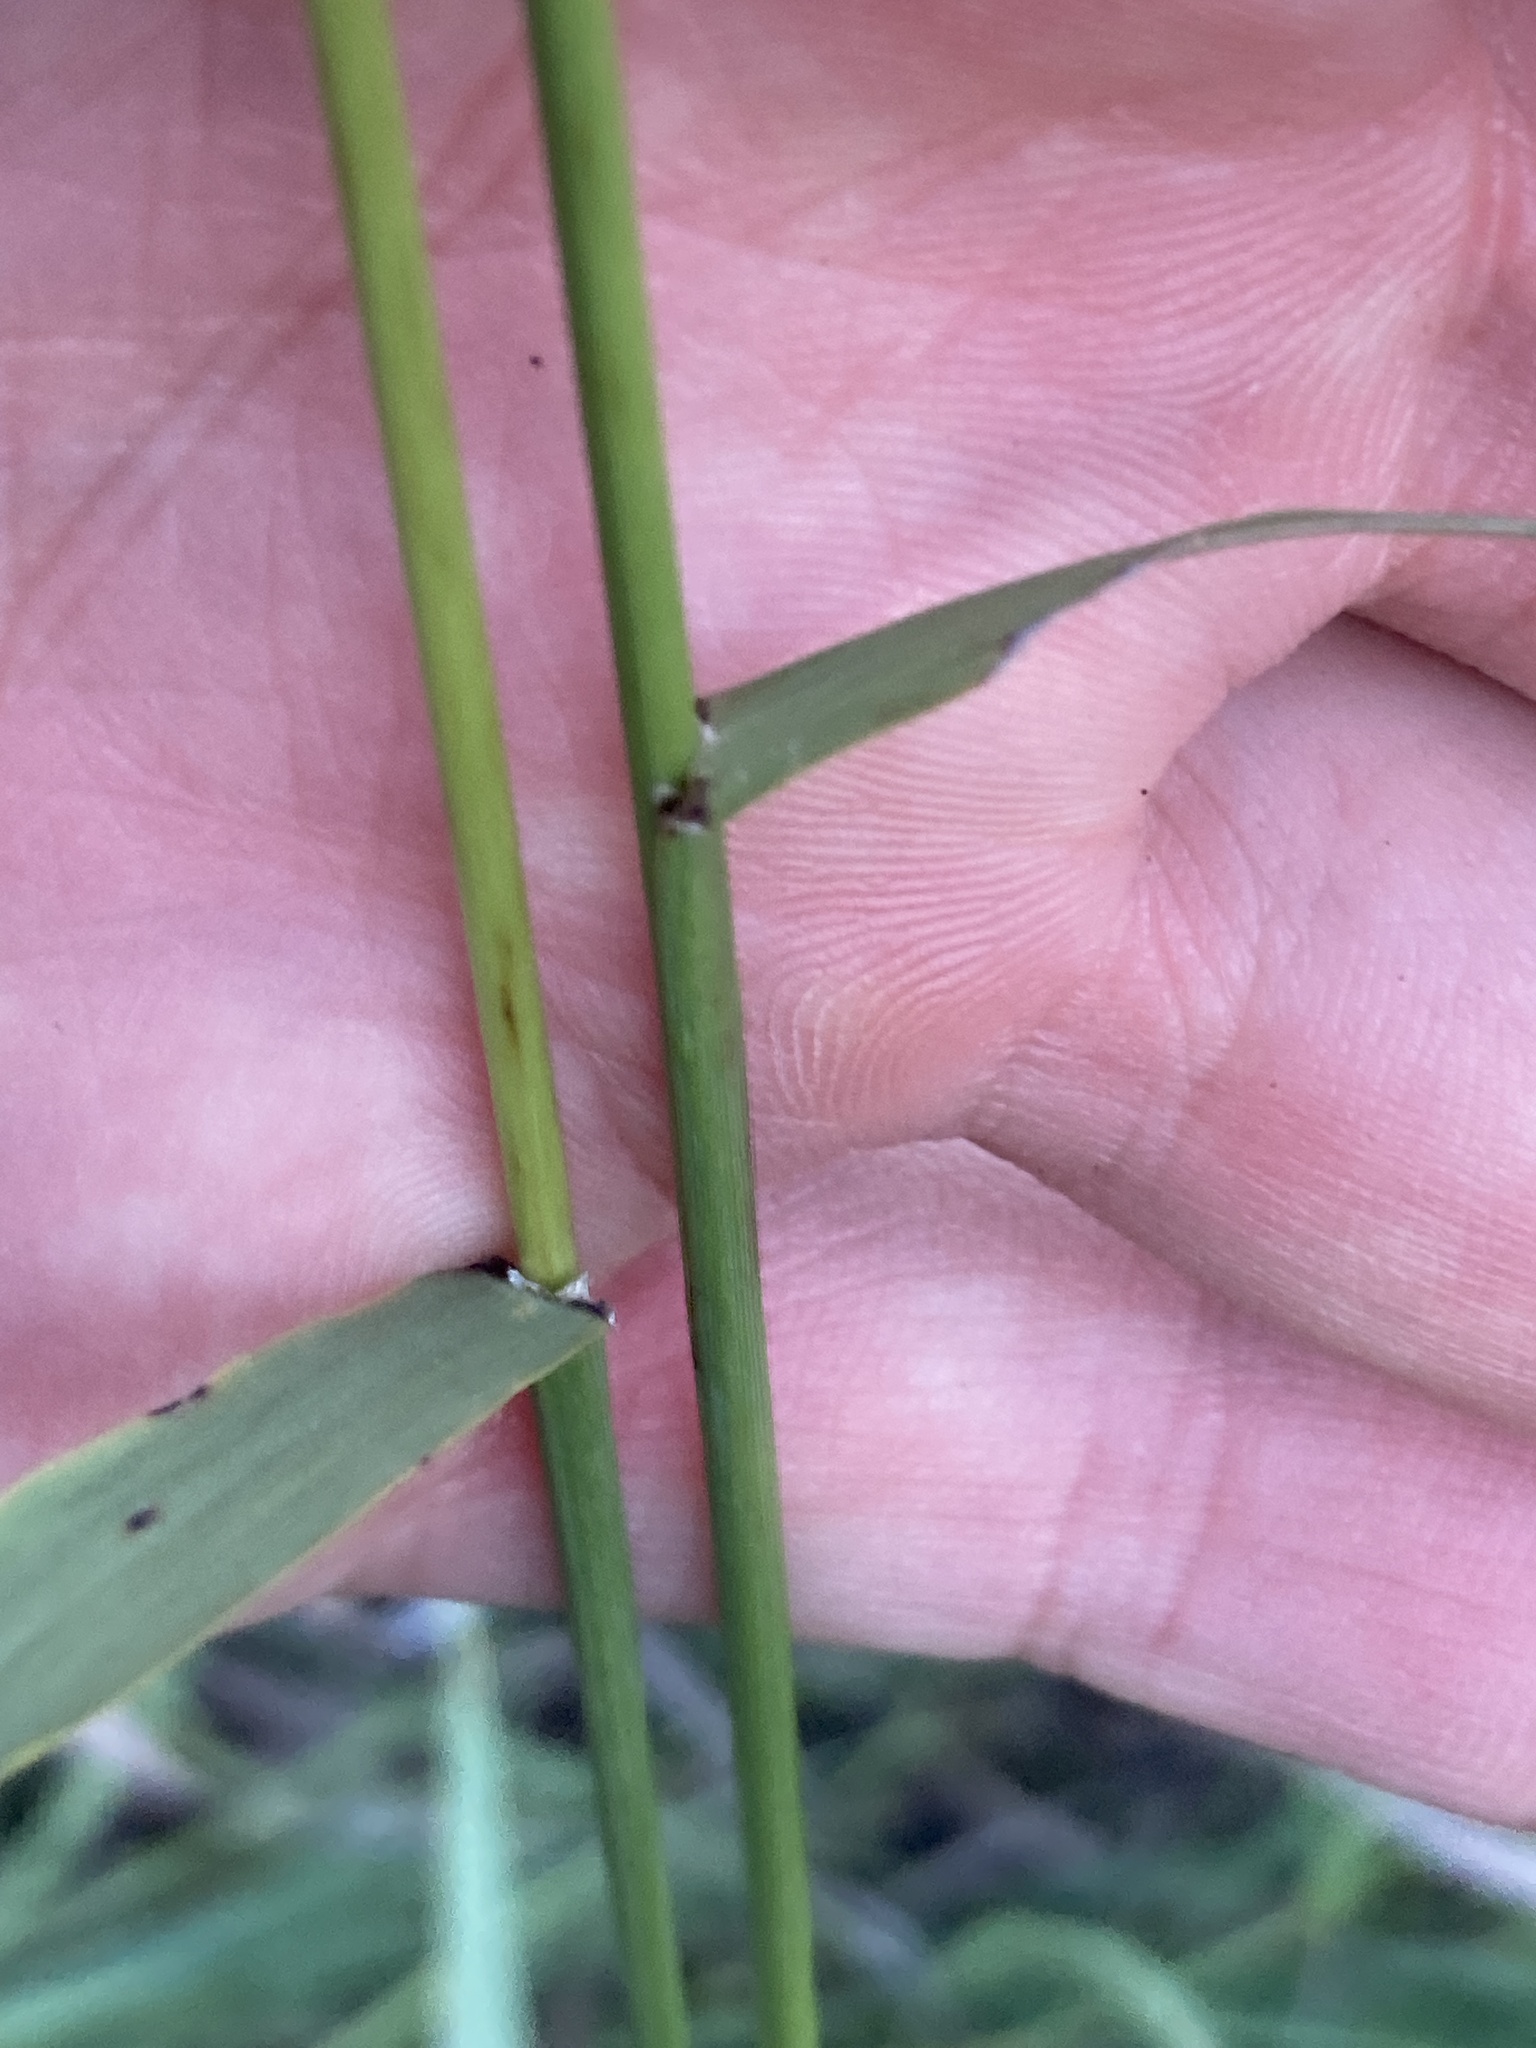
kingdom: Plantae
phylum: Tracheophyta
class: Liliopsida
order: Poales
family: Poaceae
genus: Bromus
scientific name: Bromus inermis
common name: Smooth brome
